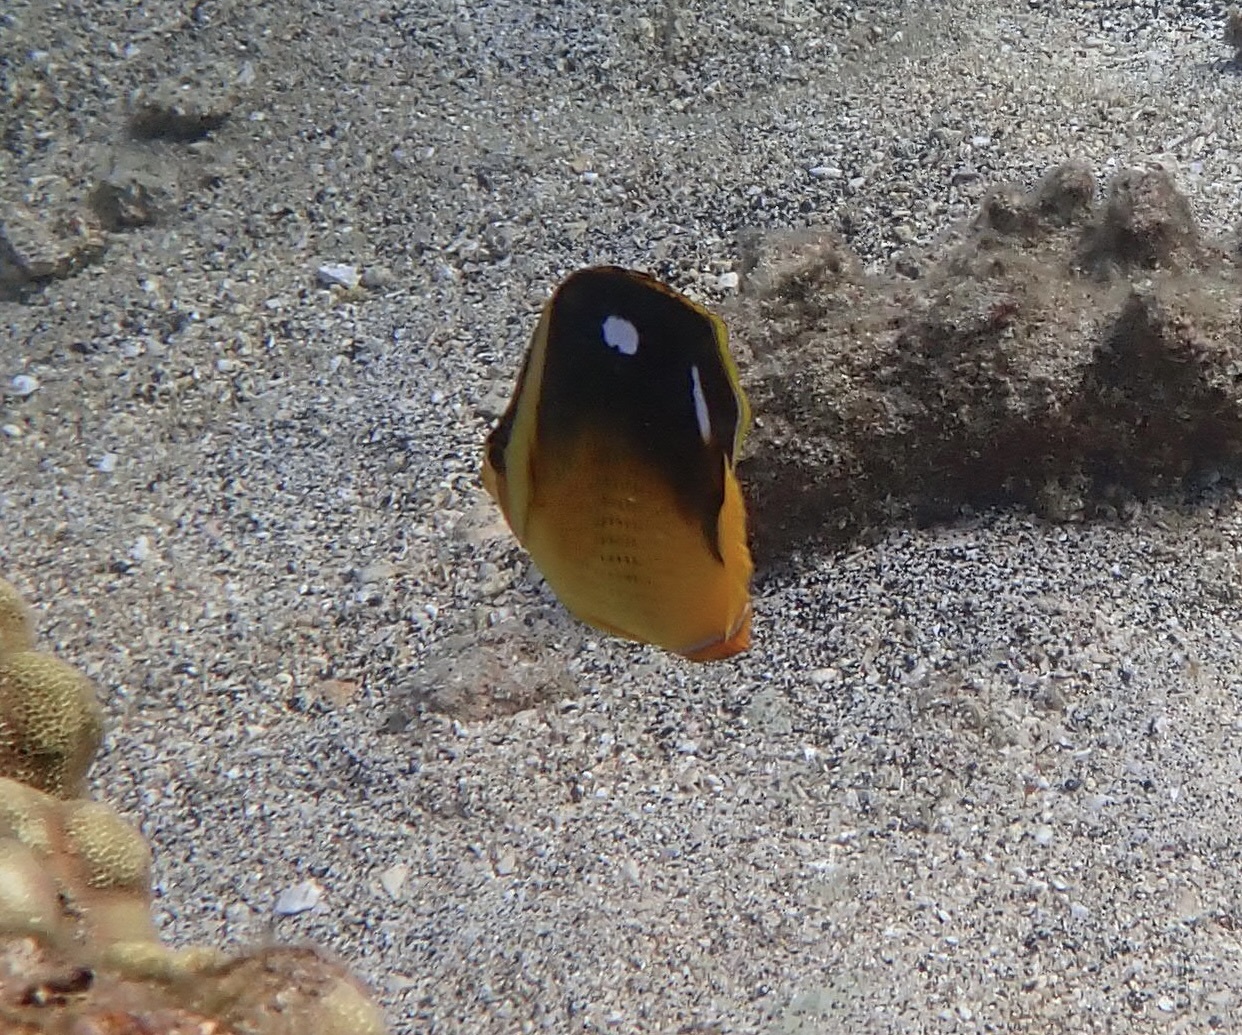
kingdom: Animalia
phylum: Chordata
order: Perciformes
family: Chaetodontidae
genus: Chaetodon
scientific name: Chaetodon quadrimaculatus
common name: Fourspot butterflyfish
